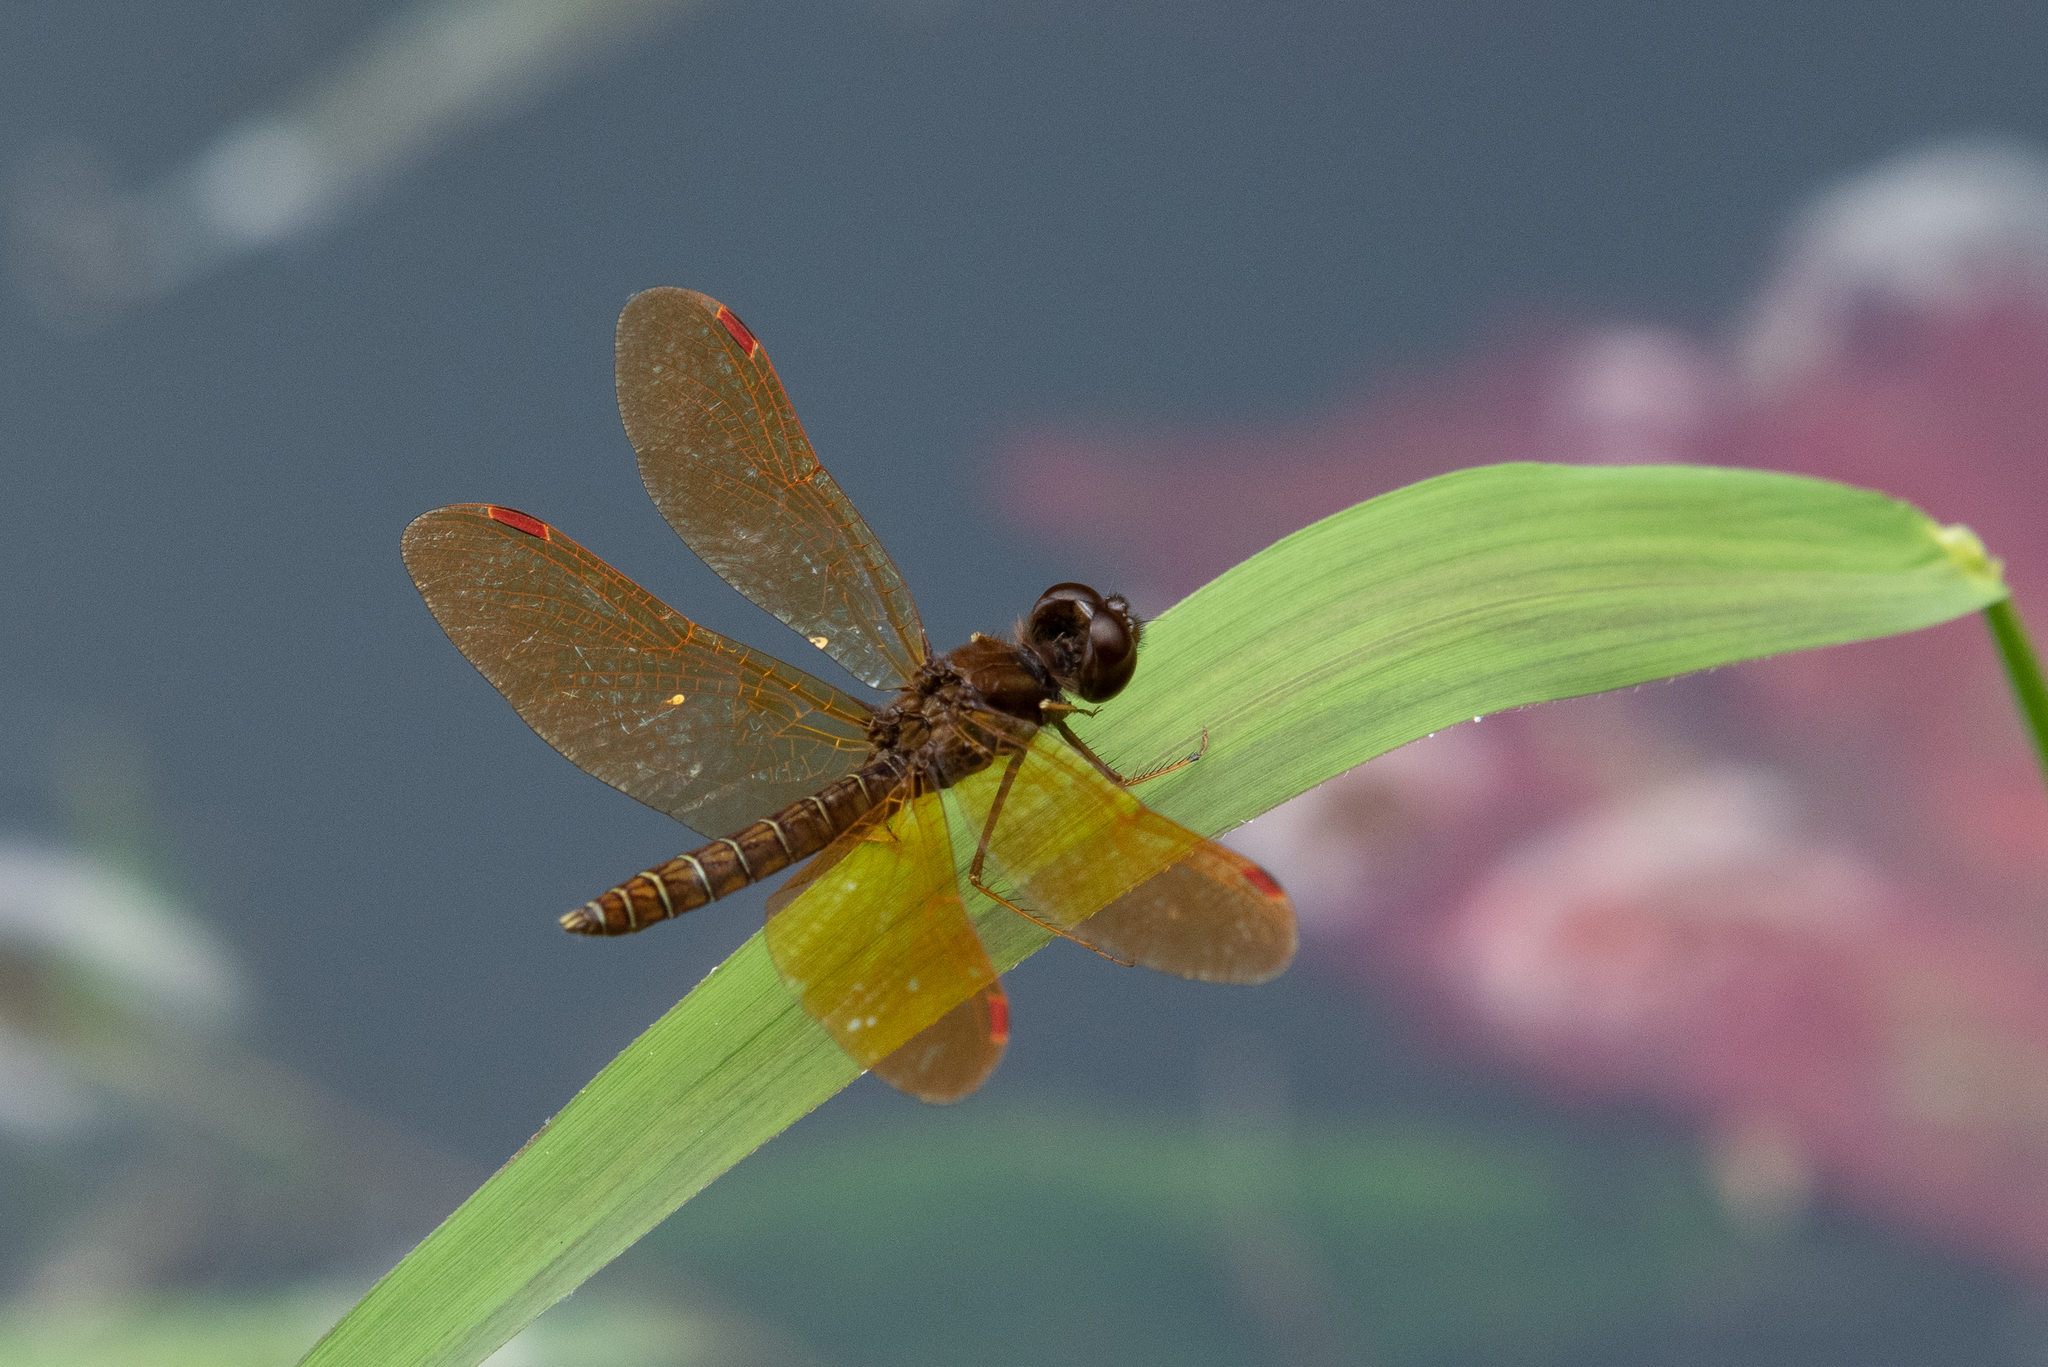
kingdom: Animalia
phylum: Arthropoda
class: Insecta
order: Odonata
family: Libellulidae
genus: Perithemis
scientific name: Perithemis tenera
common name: Eastern amberwing
